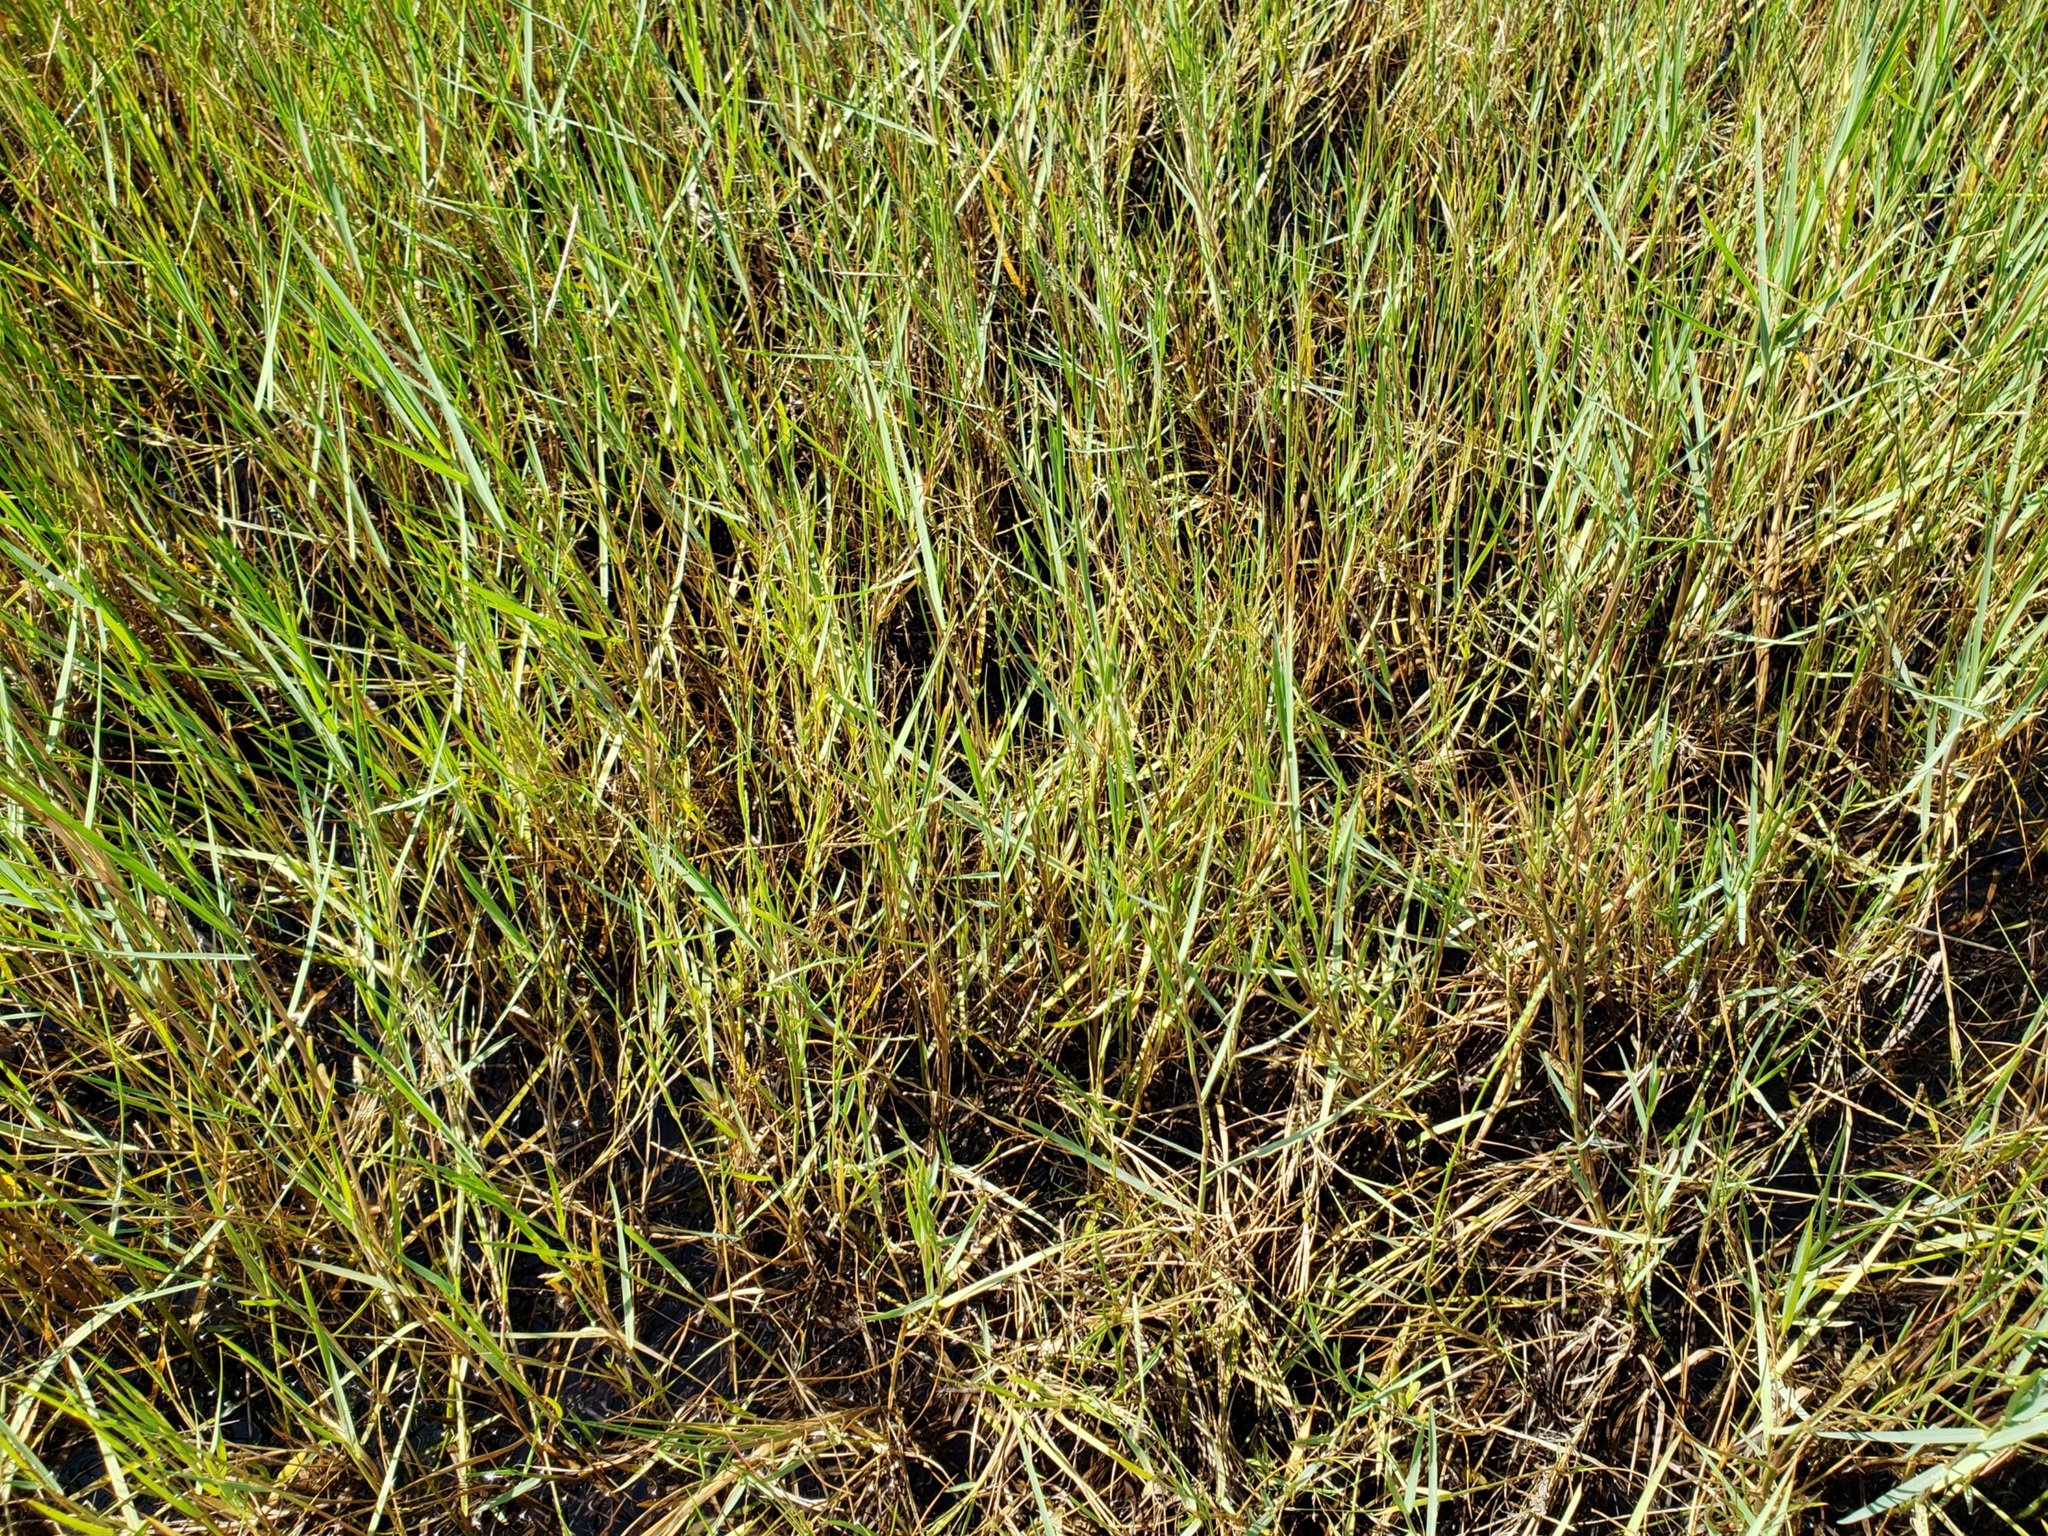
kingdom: Plantae
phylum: Tracheophyta
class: Liliopsida
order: Poales
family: Poaceae
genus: Panicum
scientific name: Panicum repens
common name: Torpedo grass
